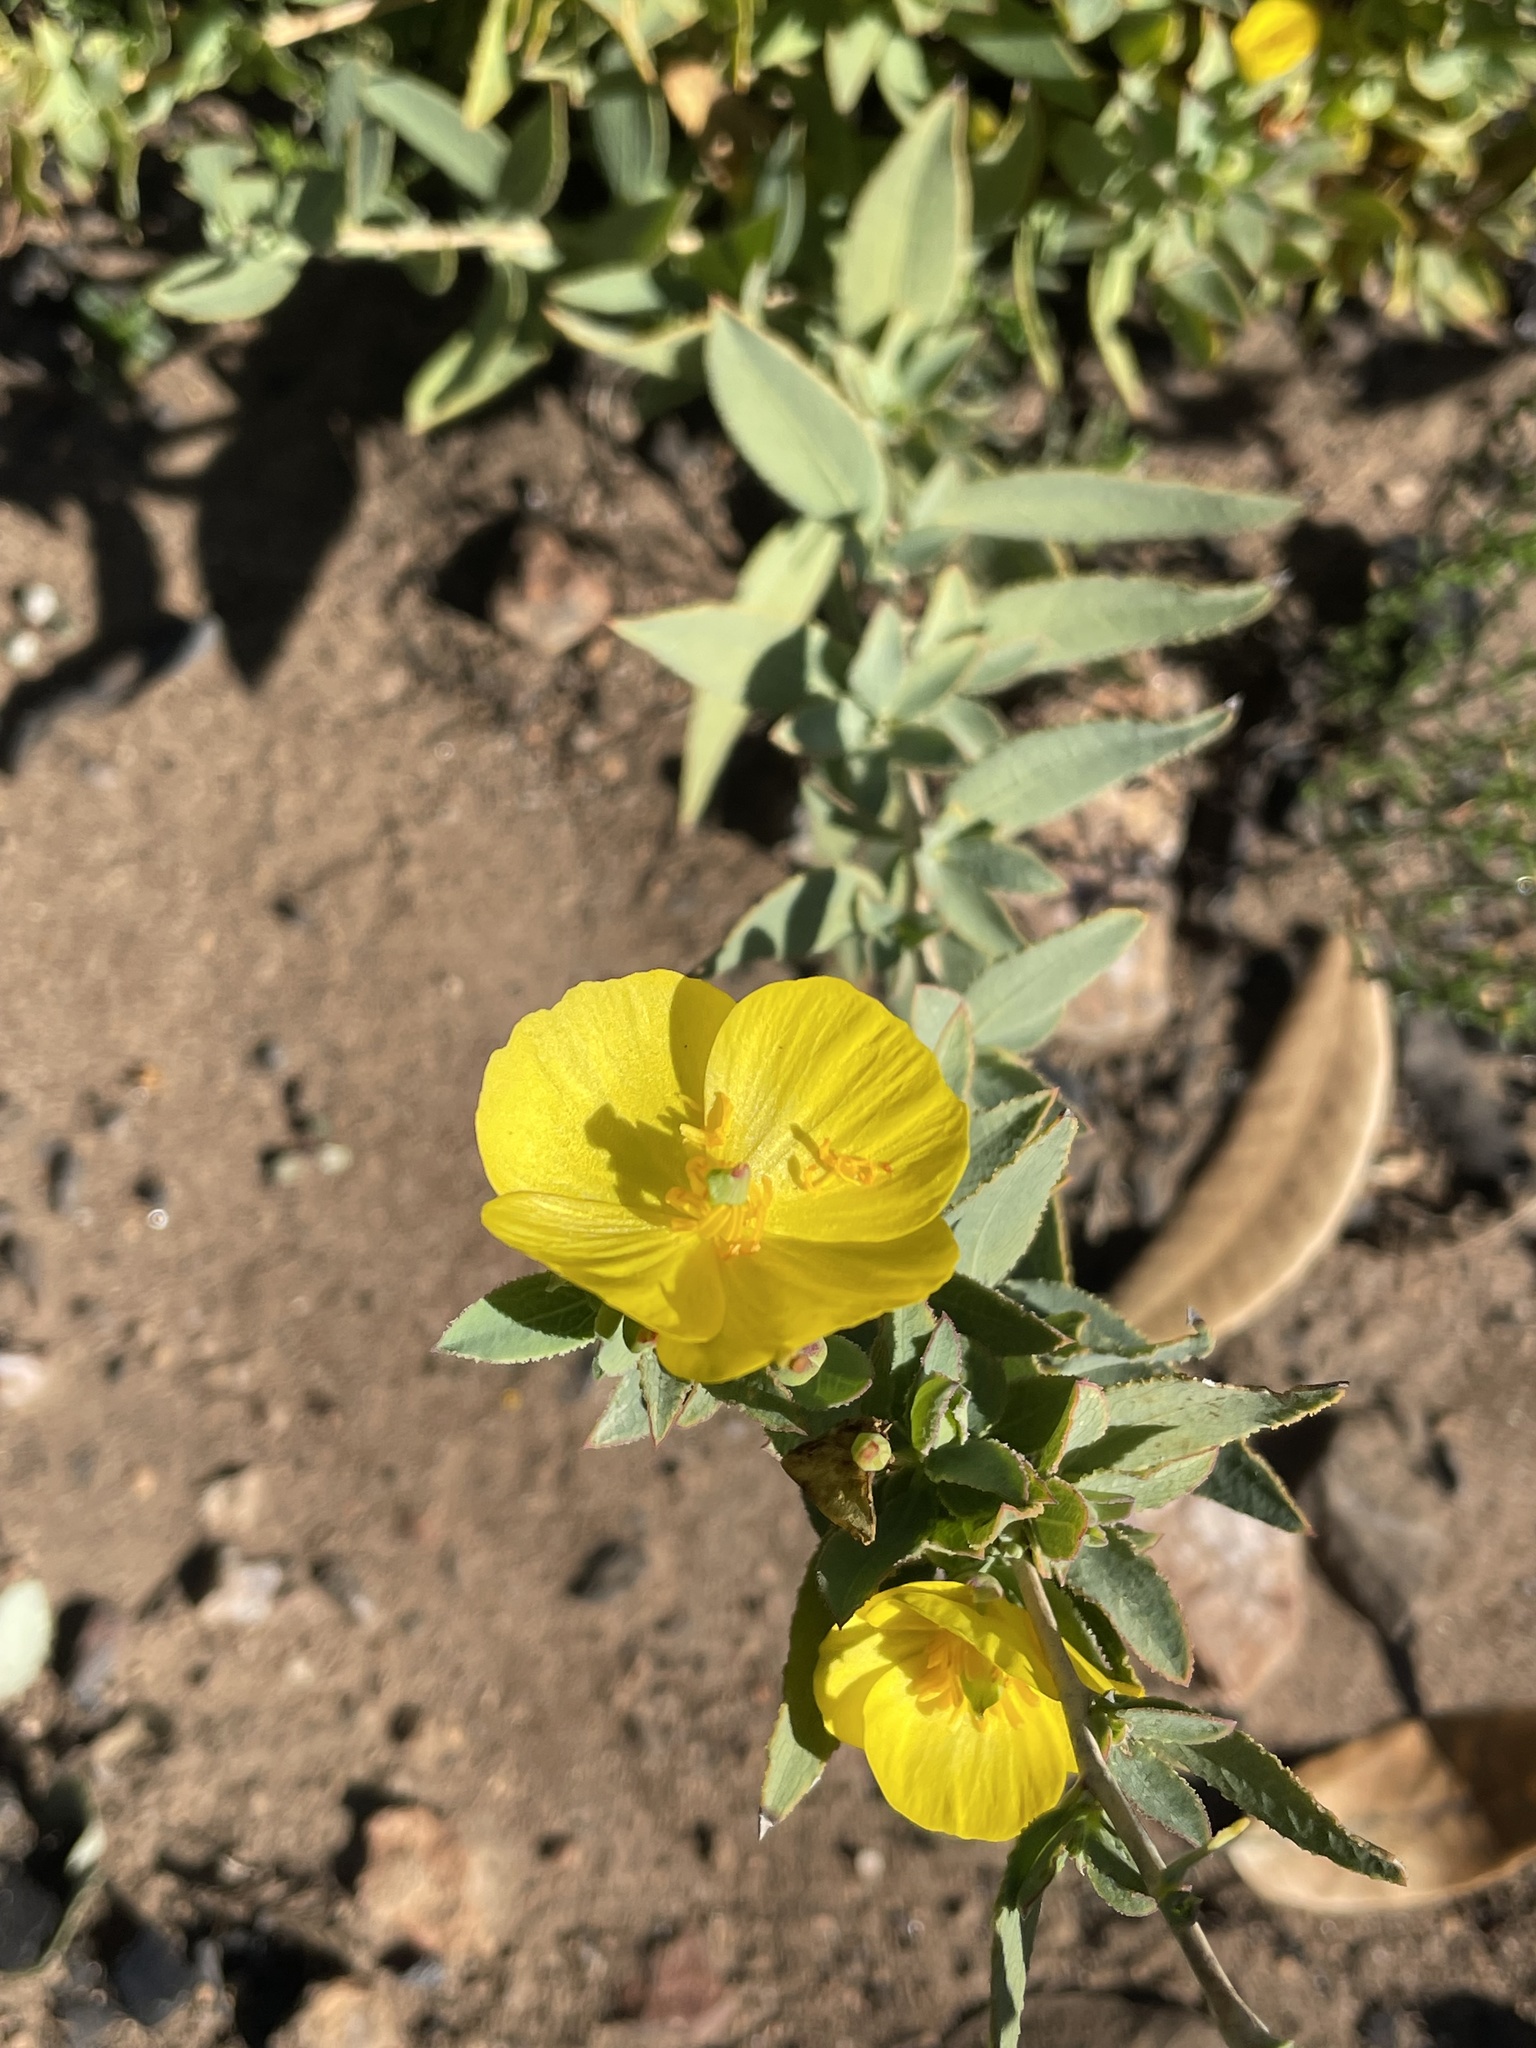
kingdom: Plantae
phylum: Tracheophyta
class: Magnoliopsida
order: Ranunculales
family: Papaveraceae
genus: Dendromecon
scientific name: Dendromecon rigida
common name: Tree poppy
